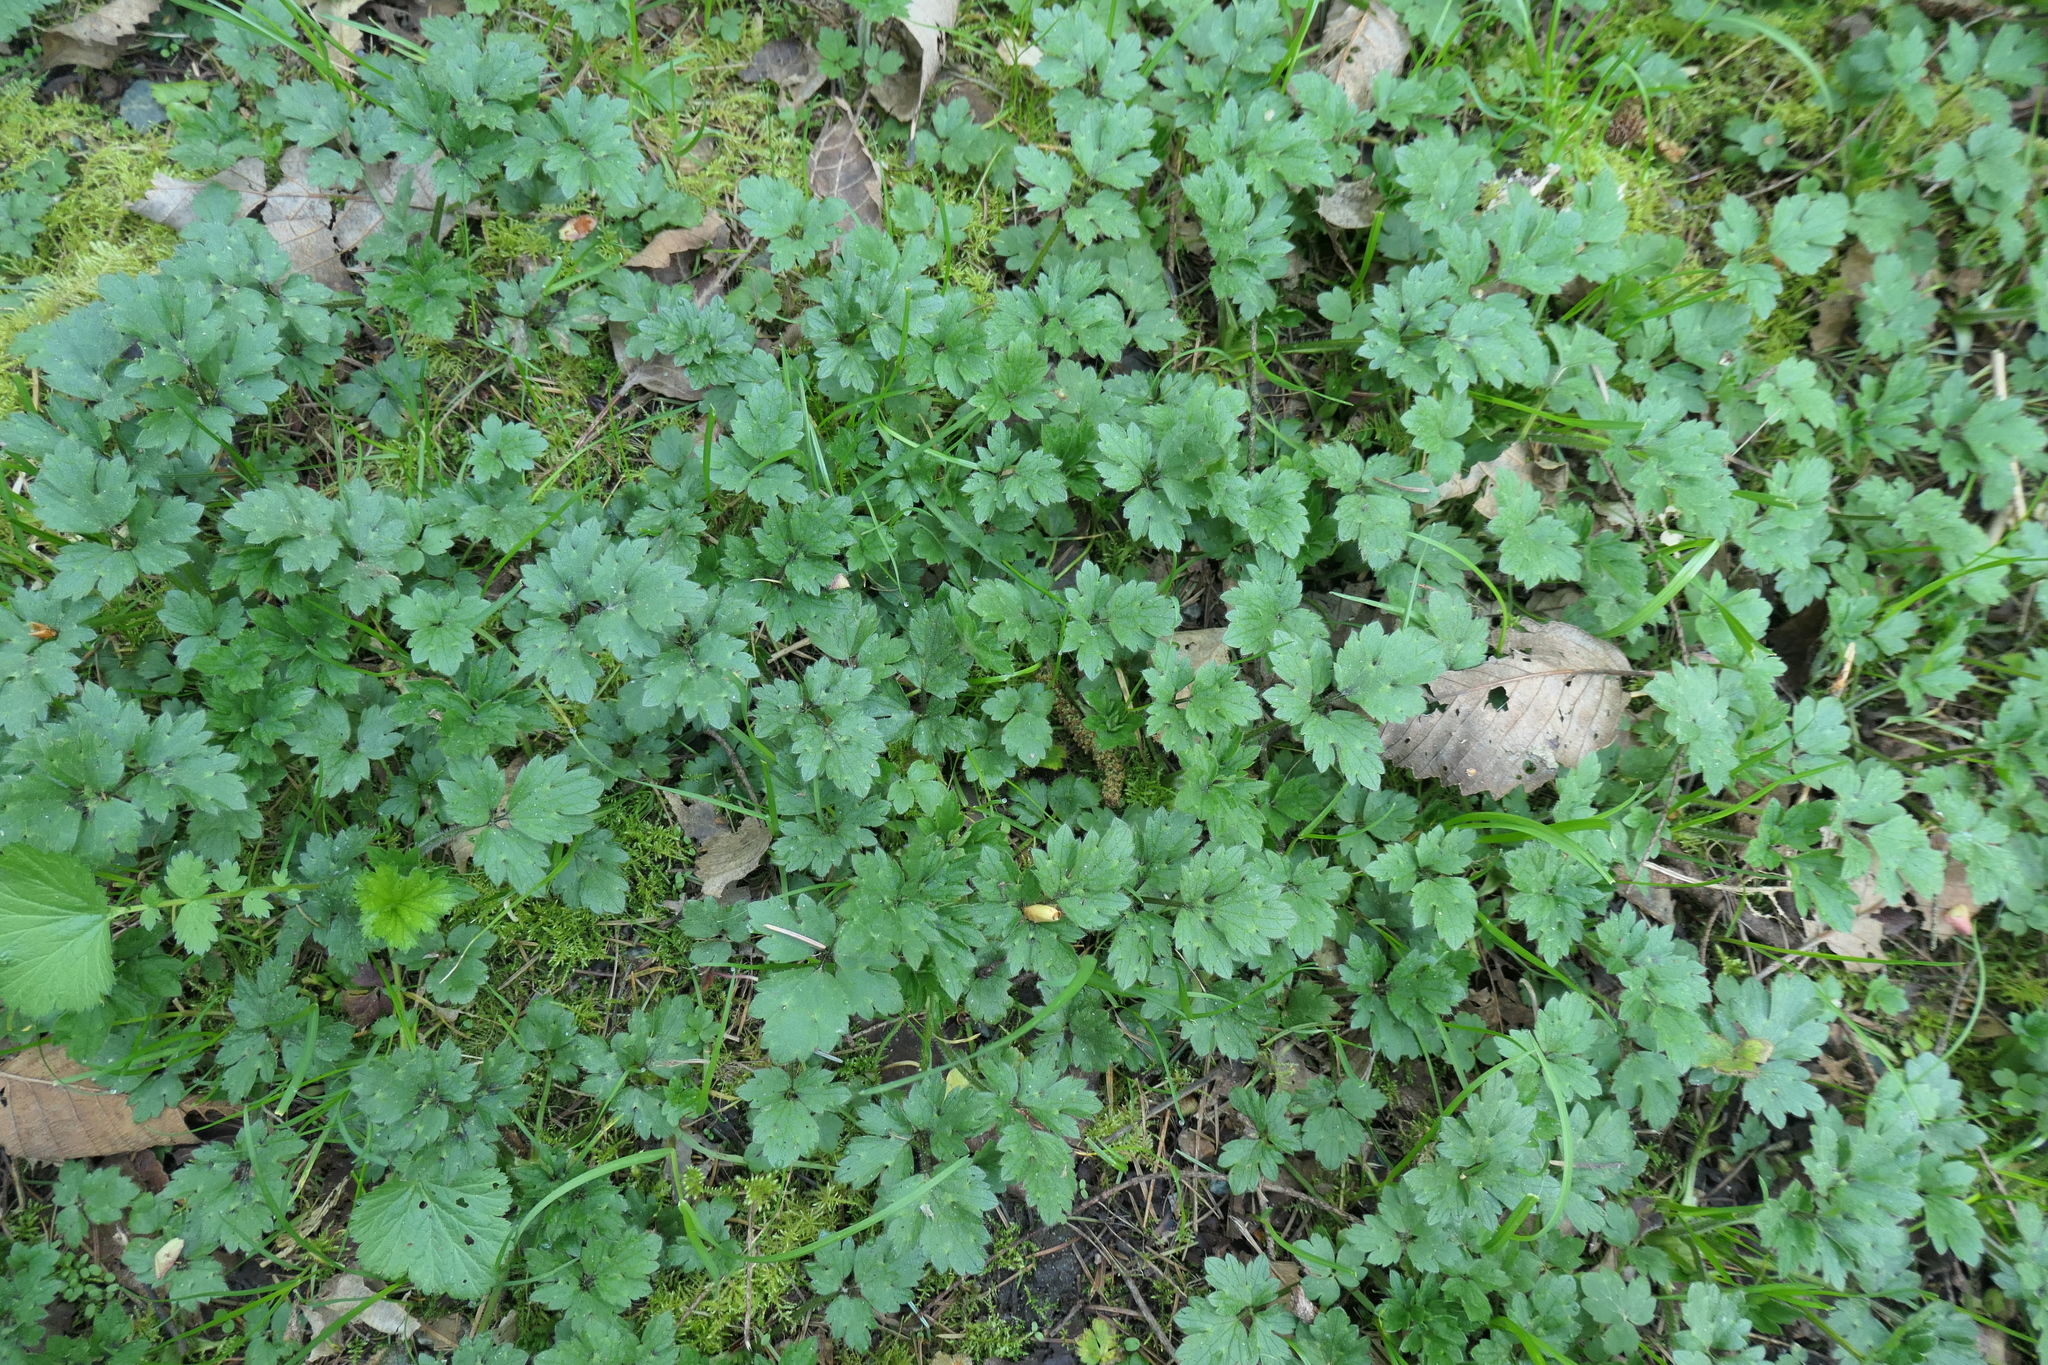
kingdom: Plantae
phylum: Tracheophyta
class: Magnoliopsida
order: Ranunculales
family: Ranunculaceae
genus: Ranunculus
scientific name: Ranunculus repens
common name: Creeping buttercup
